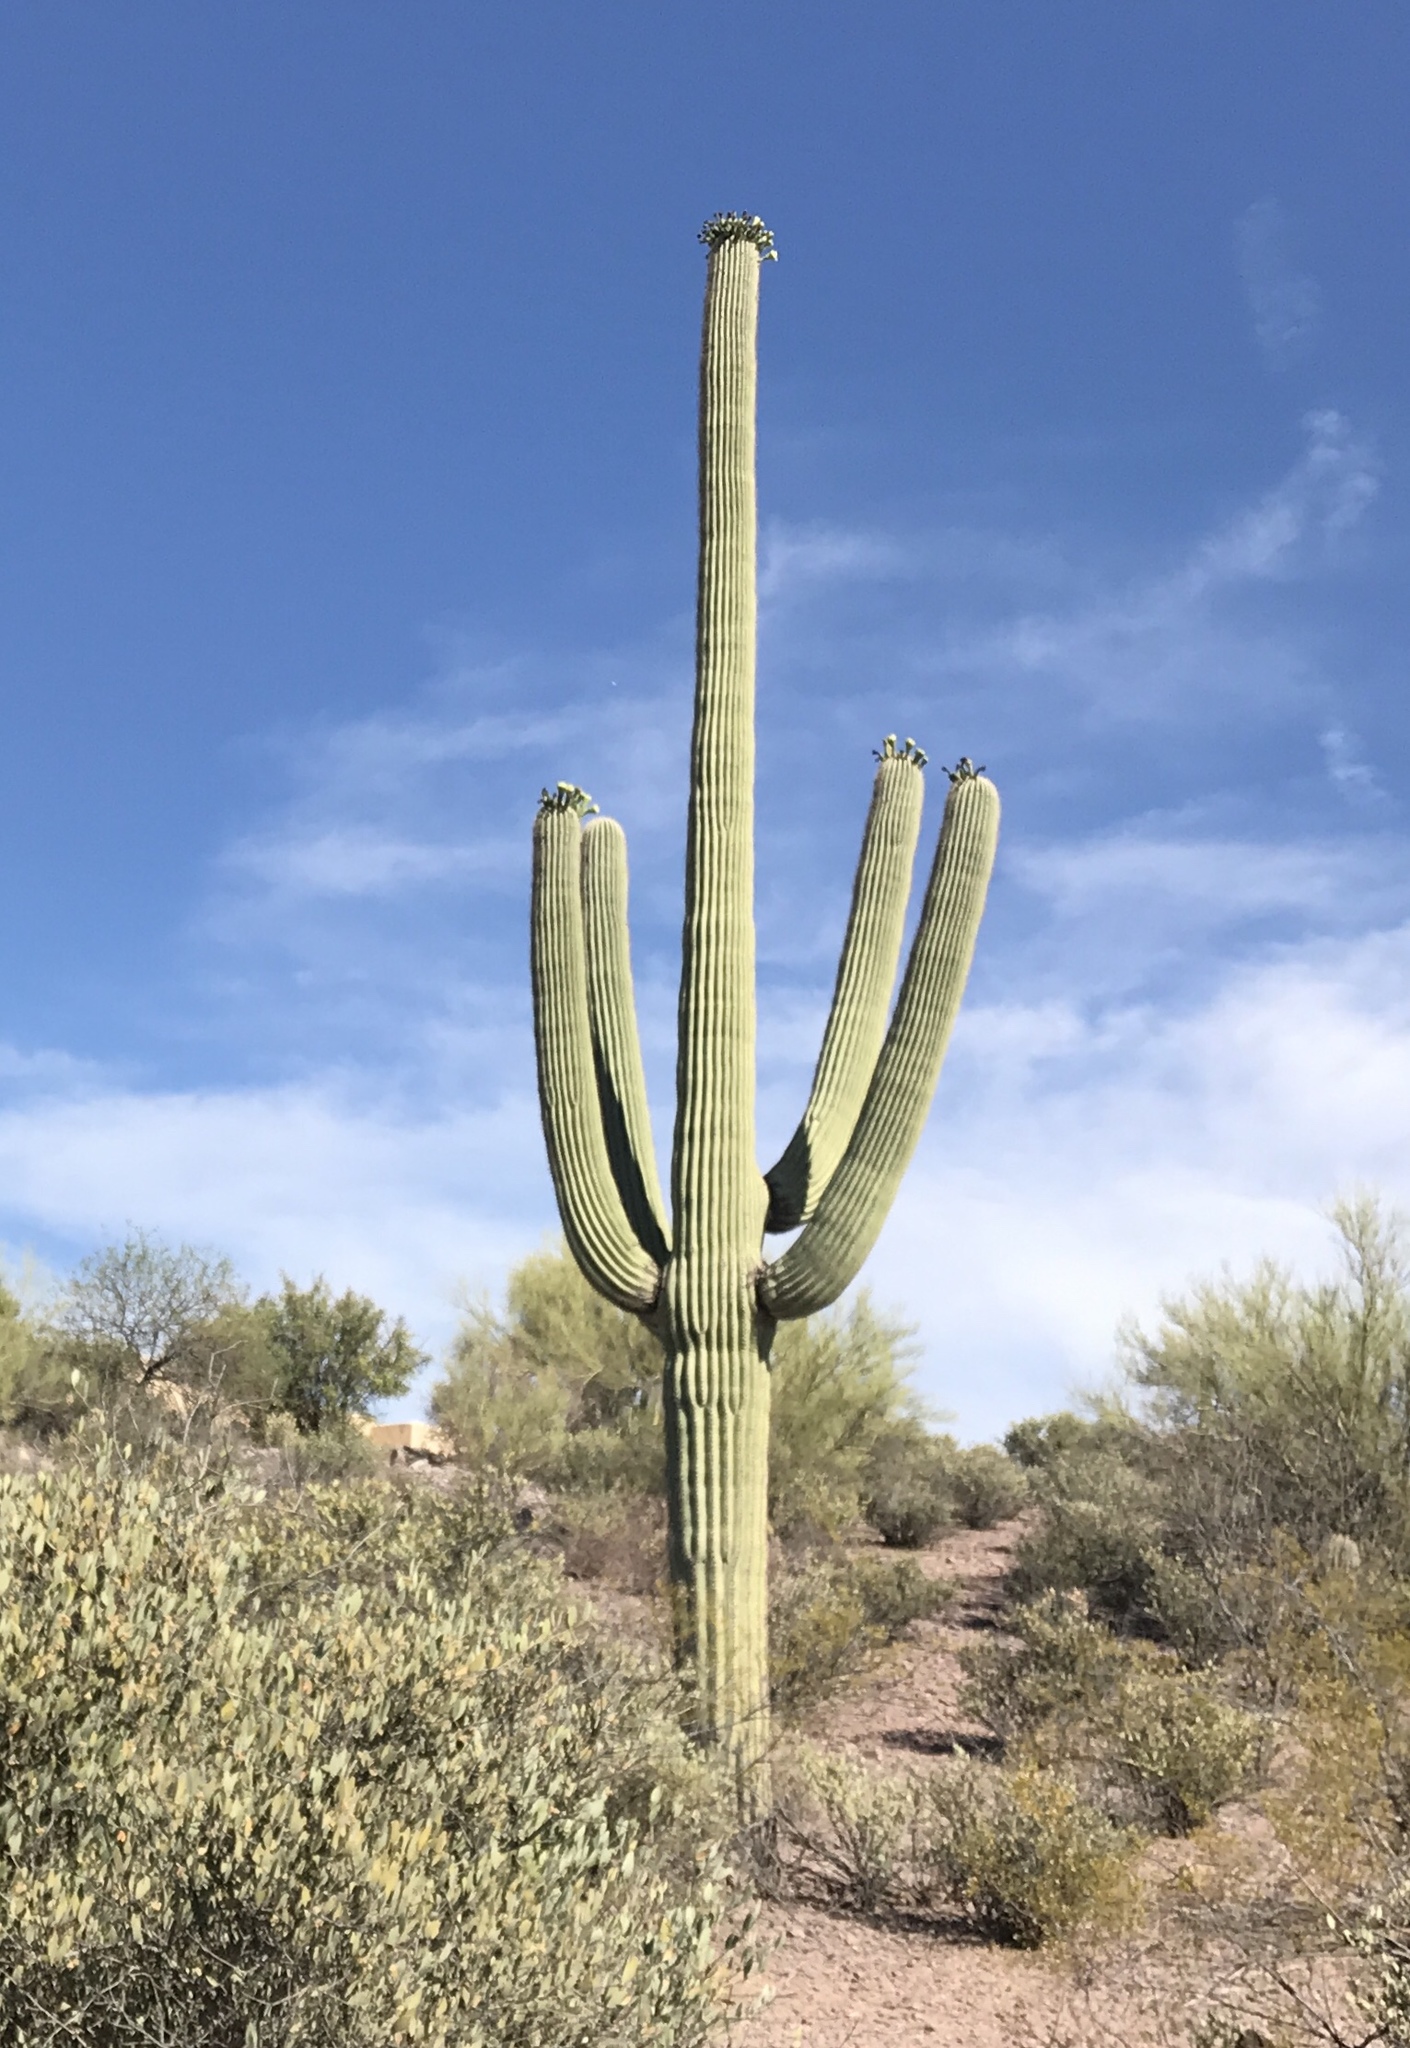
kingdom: Plantae
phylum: Tracheophyta
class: Magnoliopsida
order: Caryophyllales
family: Cactaceae
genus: Carnegiea
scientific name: Carnegiea gigantea
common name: Saguaro
